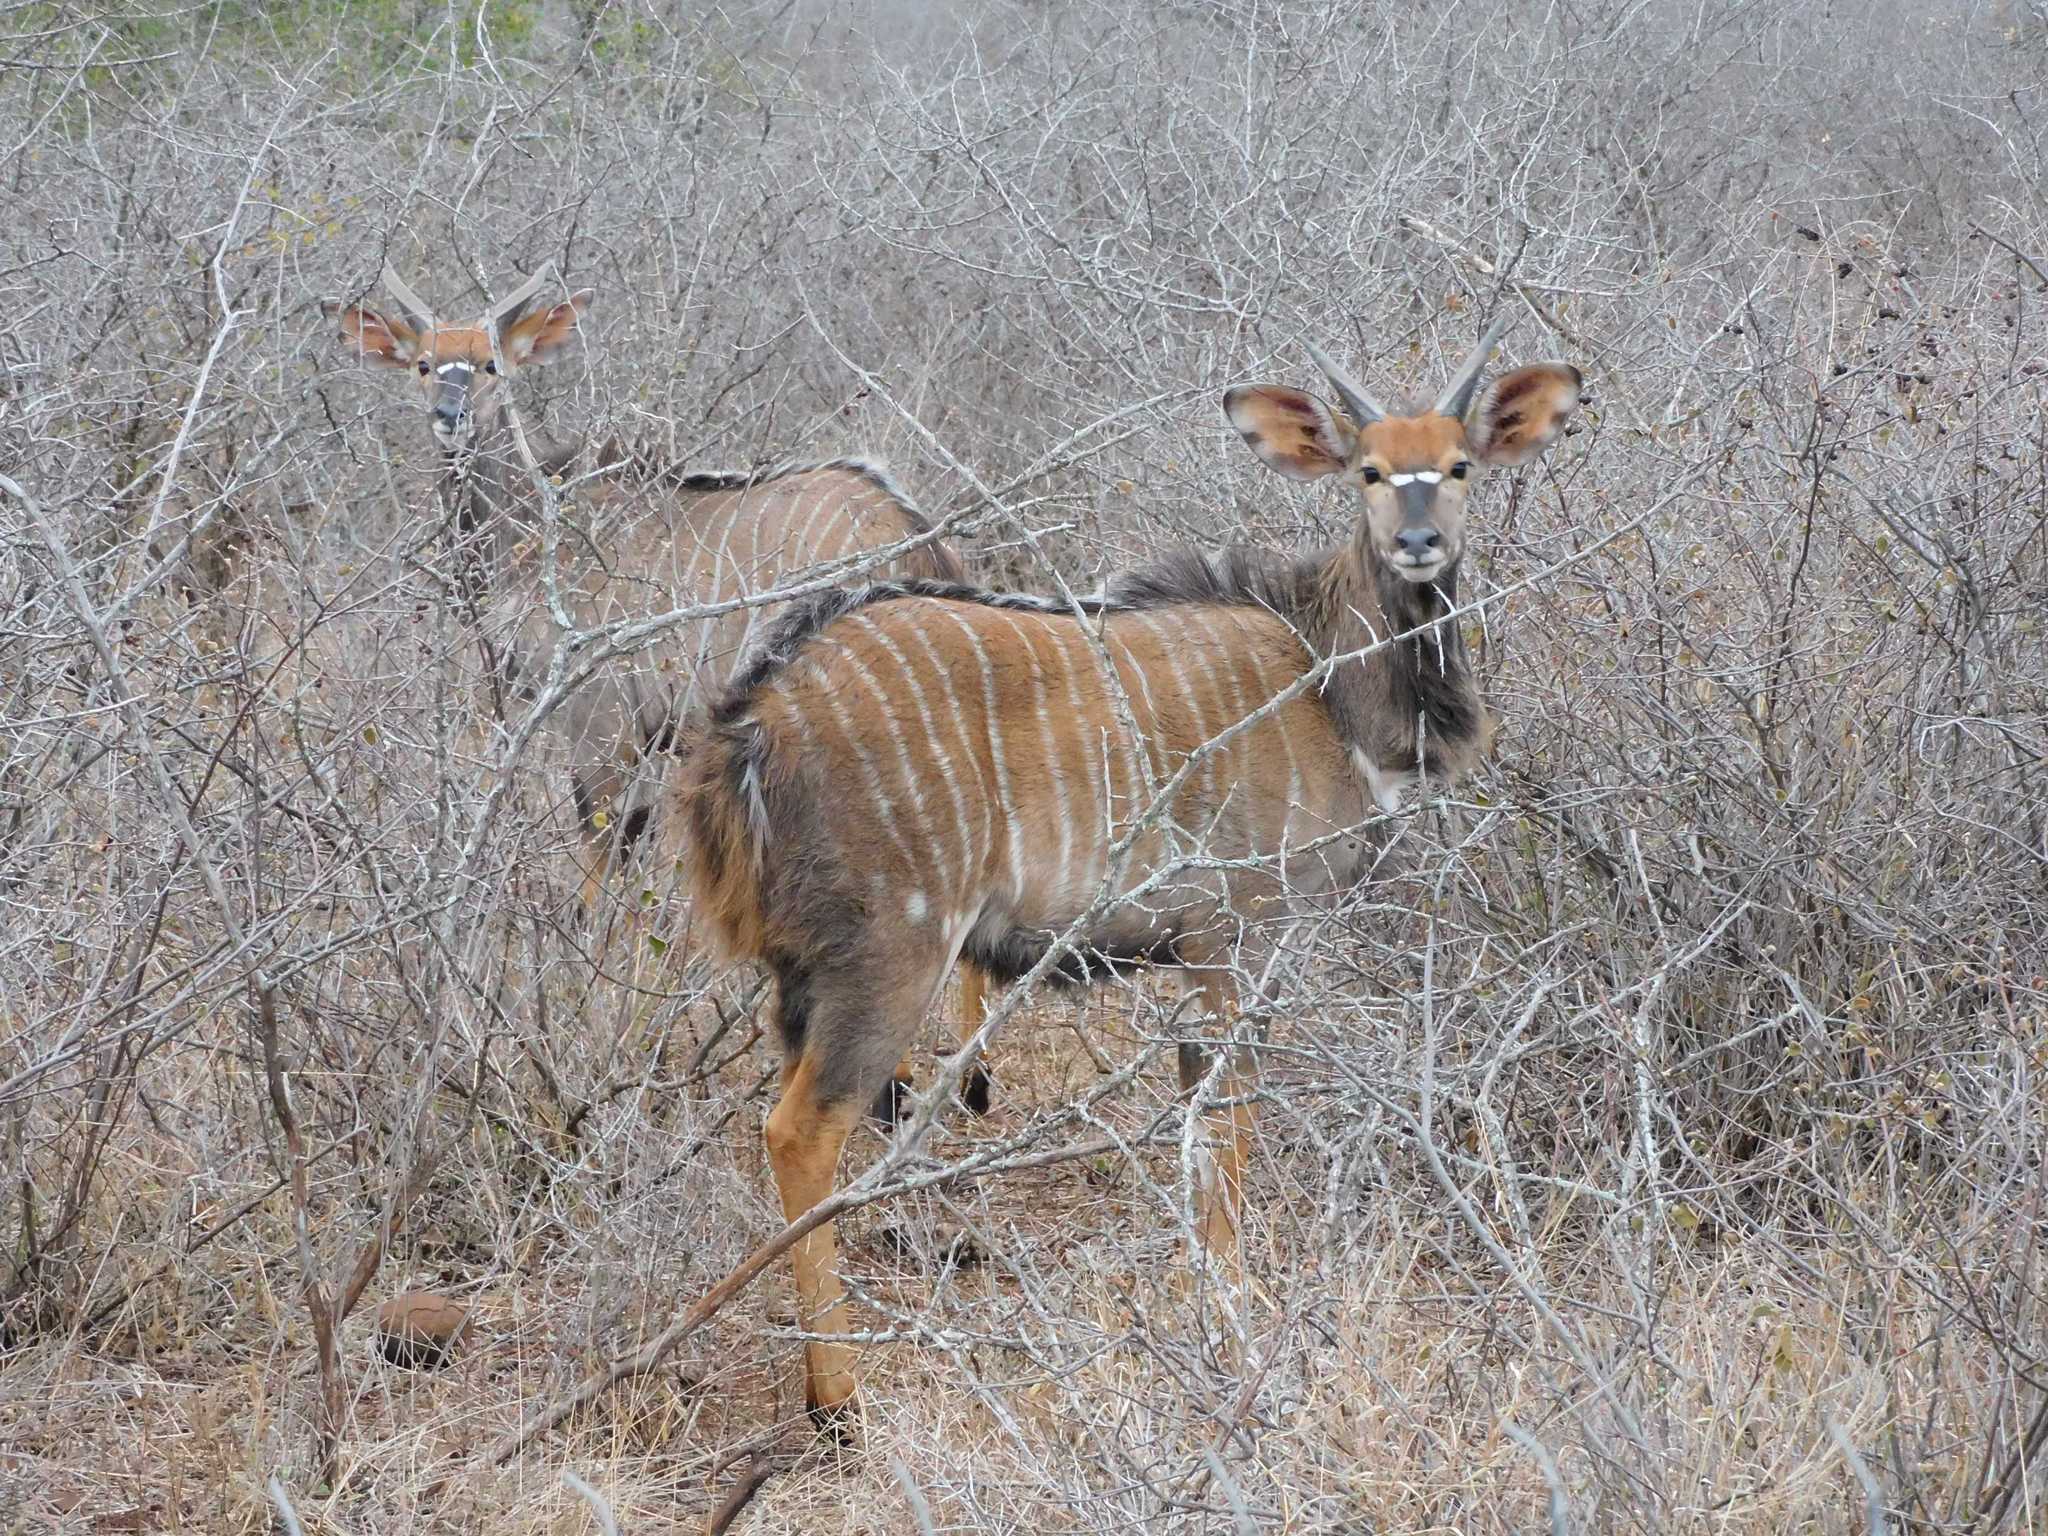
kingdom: Animalia
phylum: Chordata
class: Mammalia
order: Artiodactyla
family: Bovidae
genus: Tragelaphus
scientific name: Tragelaphus angasii
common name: Nyala
